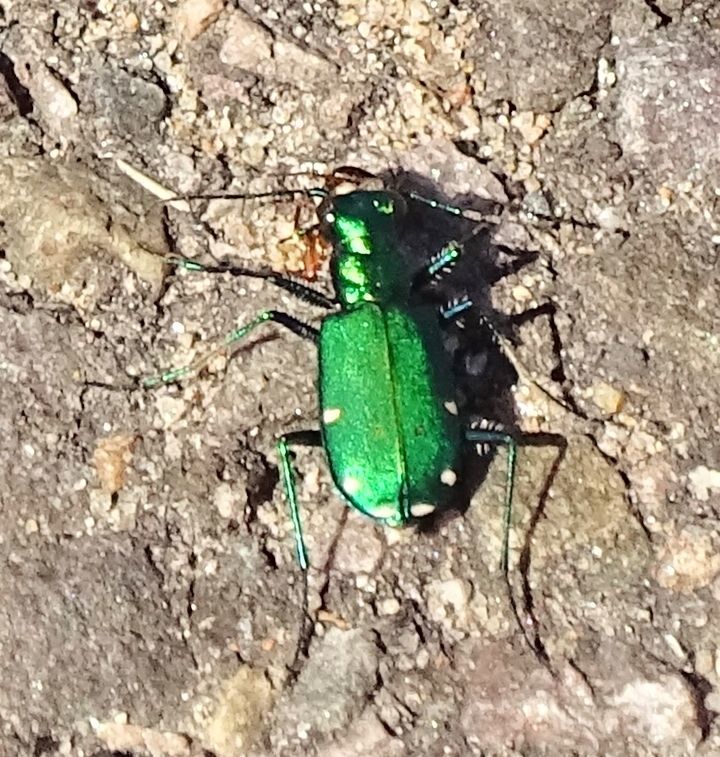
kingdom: Animalia
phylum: Arthropoda
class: Insecta
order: Coleoptera
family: Carabidae
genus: Cicindela
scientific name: Cicindela sexguttata
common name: Six-spotted tiger beetle
